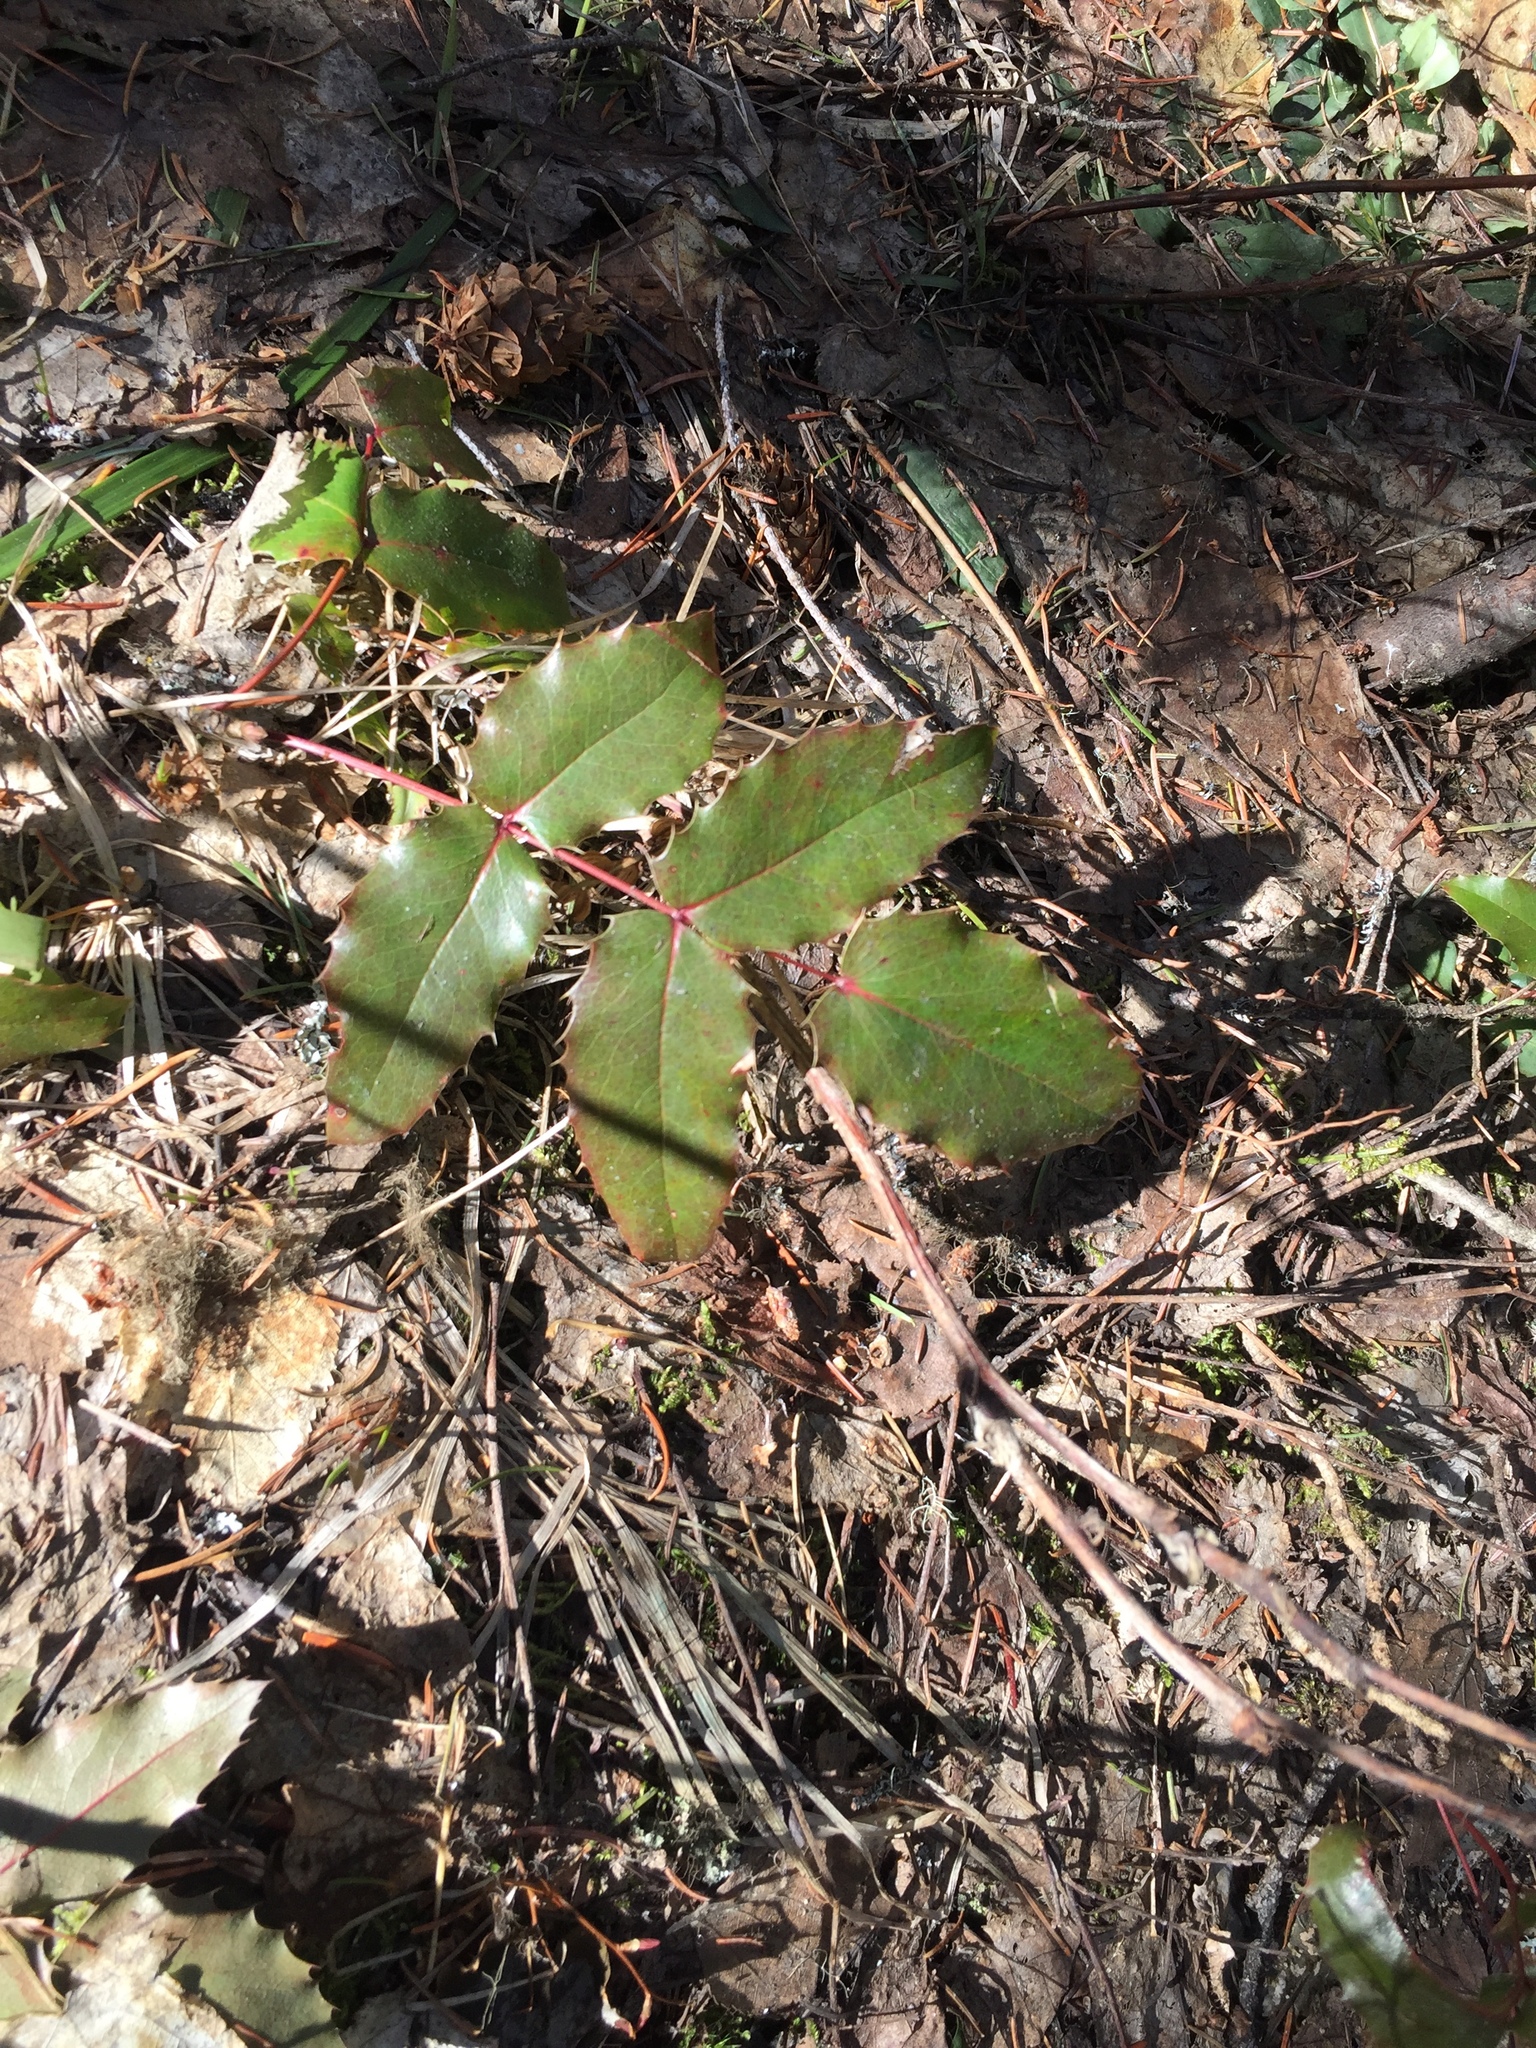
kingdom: Plantae
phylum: Tracheophyta
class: Magnoliopsida
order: Ranunculales
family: Berberidaceae
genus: Mahonia
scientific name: Mahonia aquifolium
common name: Oregon-grape
